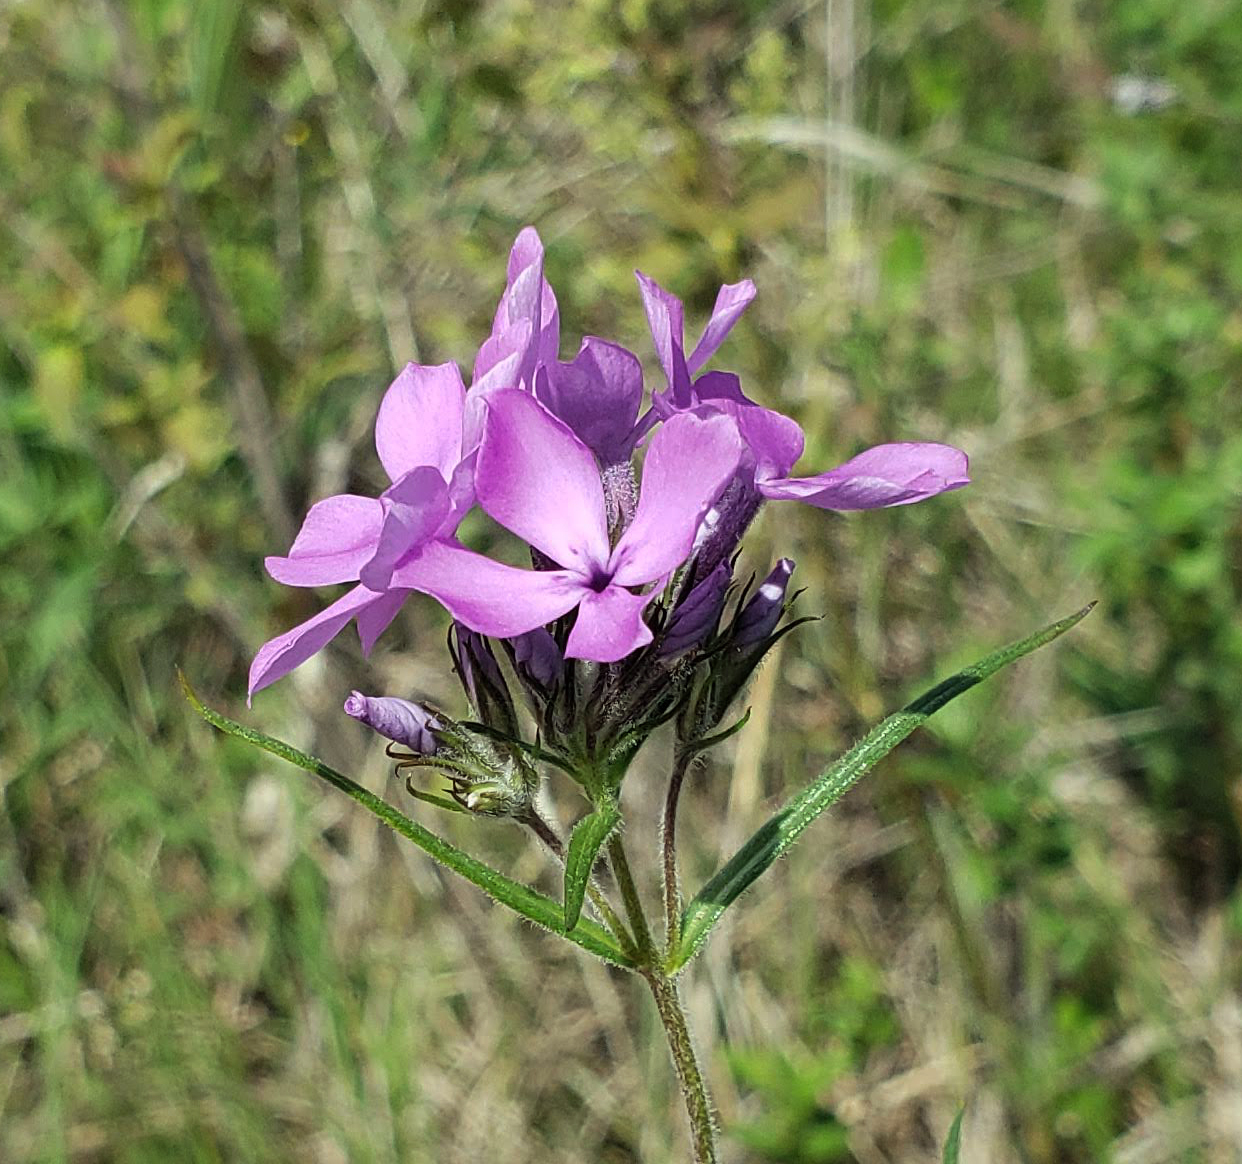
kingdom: Plantae
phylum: Tracheophyta
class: Magnoliopsida
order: Ericales
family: Polemoniaceae
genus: Phlox
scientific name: Phlox pilosa
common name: Prairie phlox
